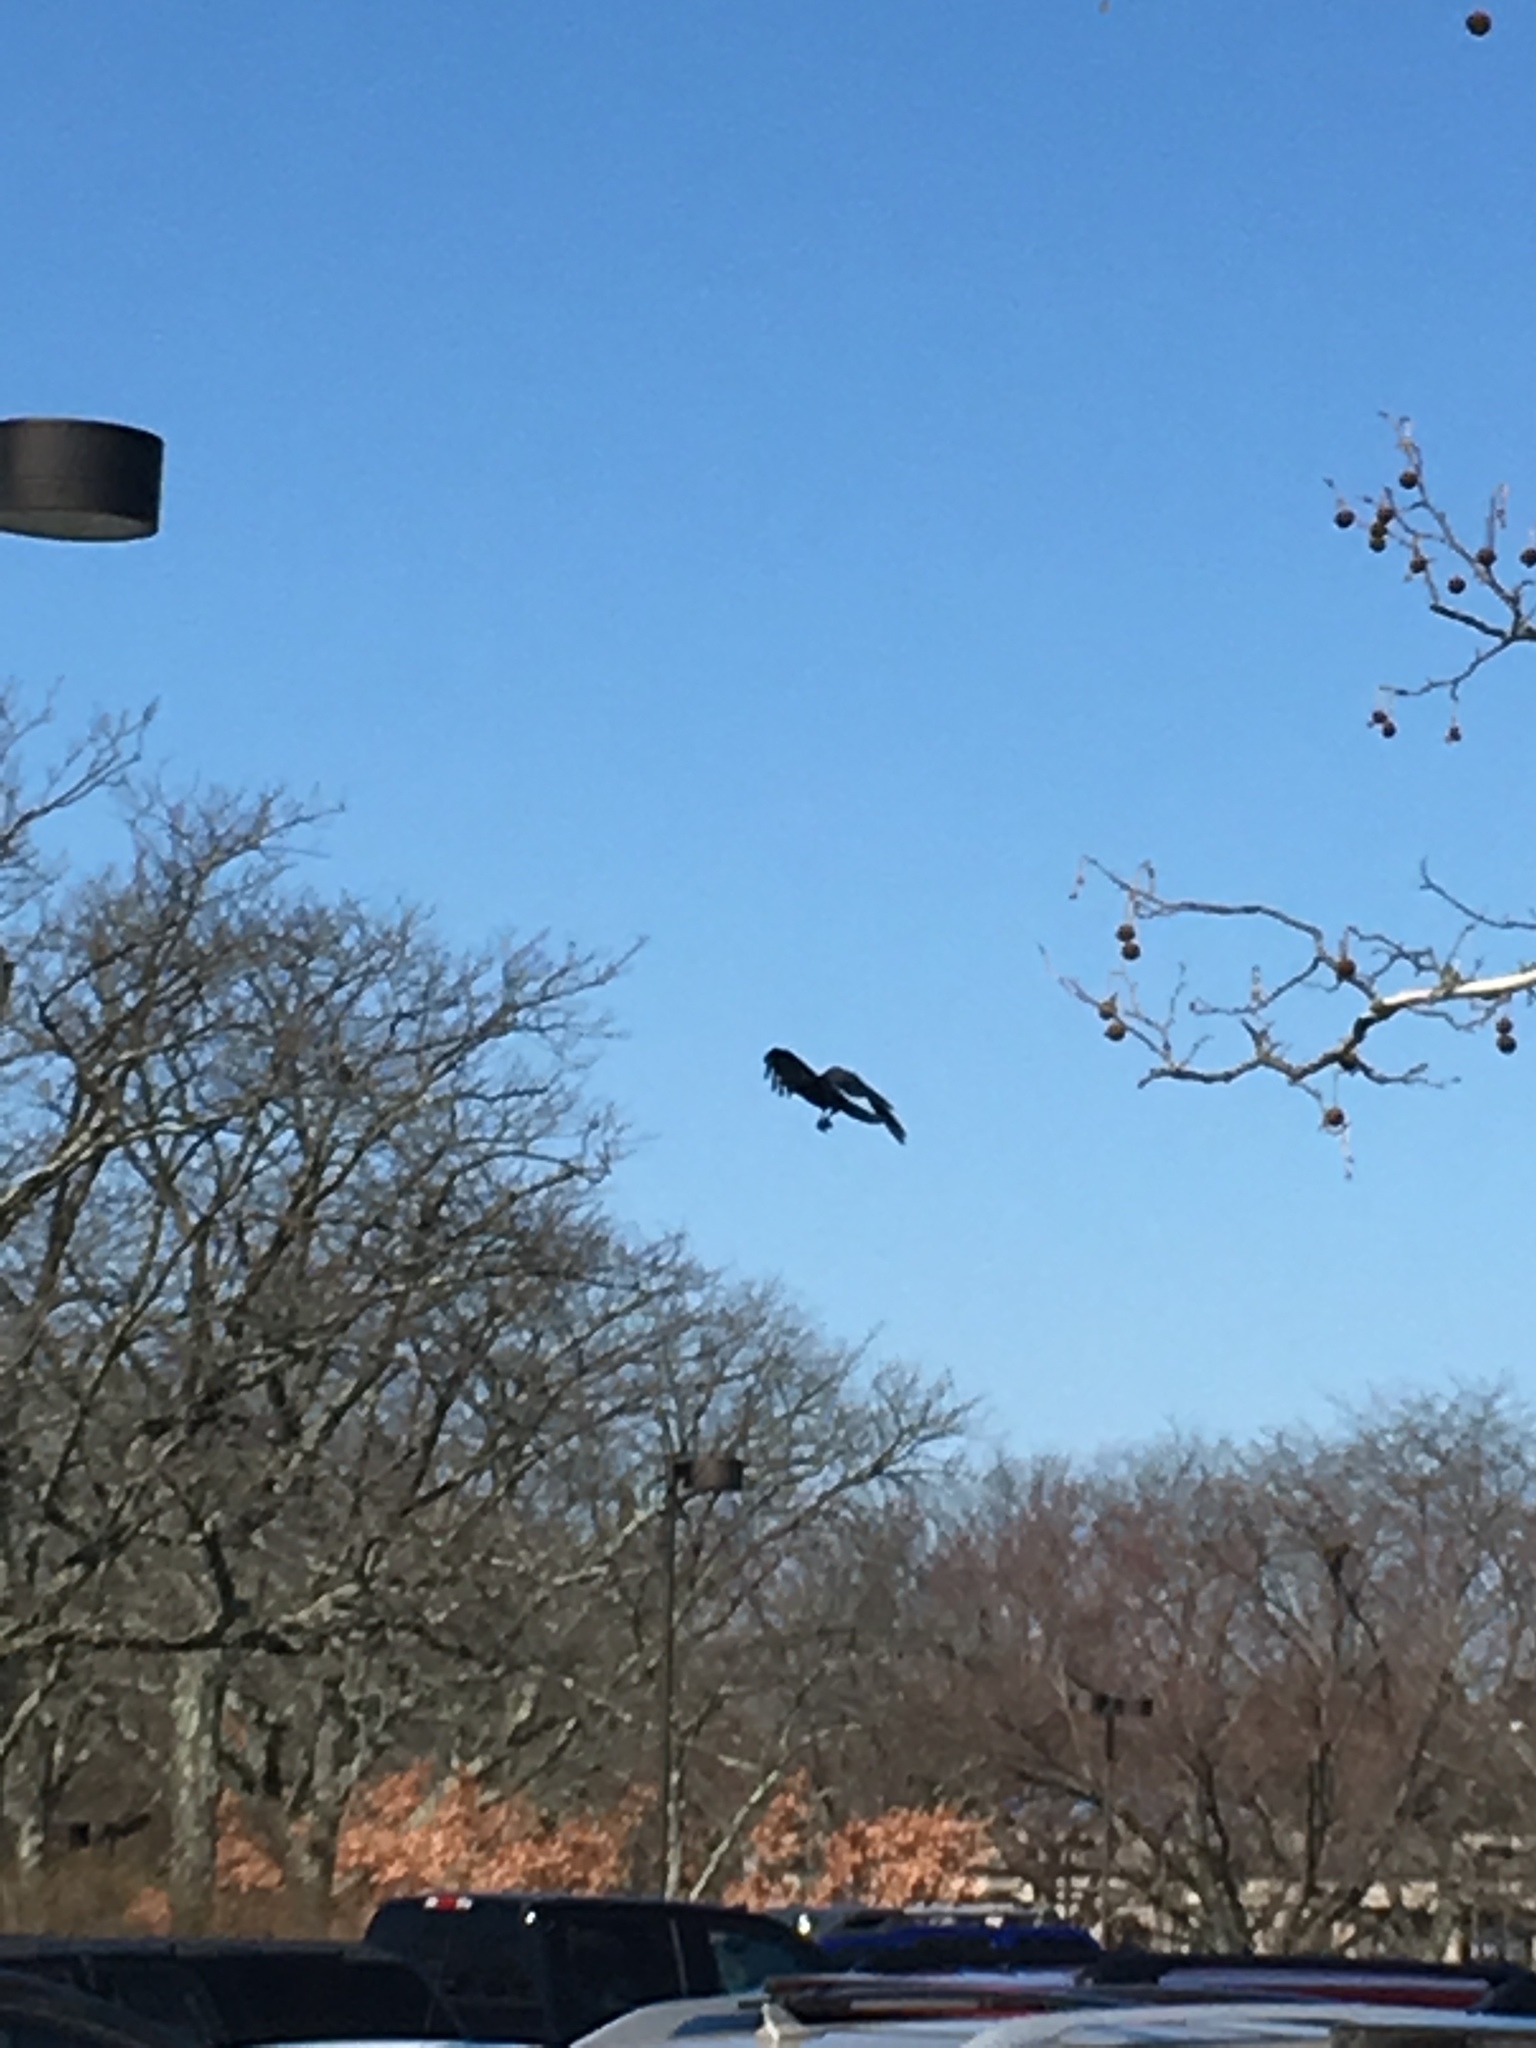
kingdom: Animalia
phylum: Chordata
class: Aves
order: Passeriformes
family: Corvidae
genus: Corvus
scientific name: Corvus ossifragus
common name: Fish crow
